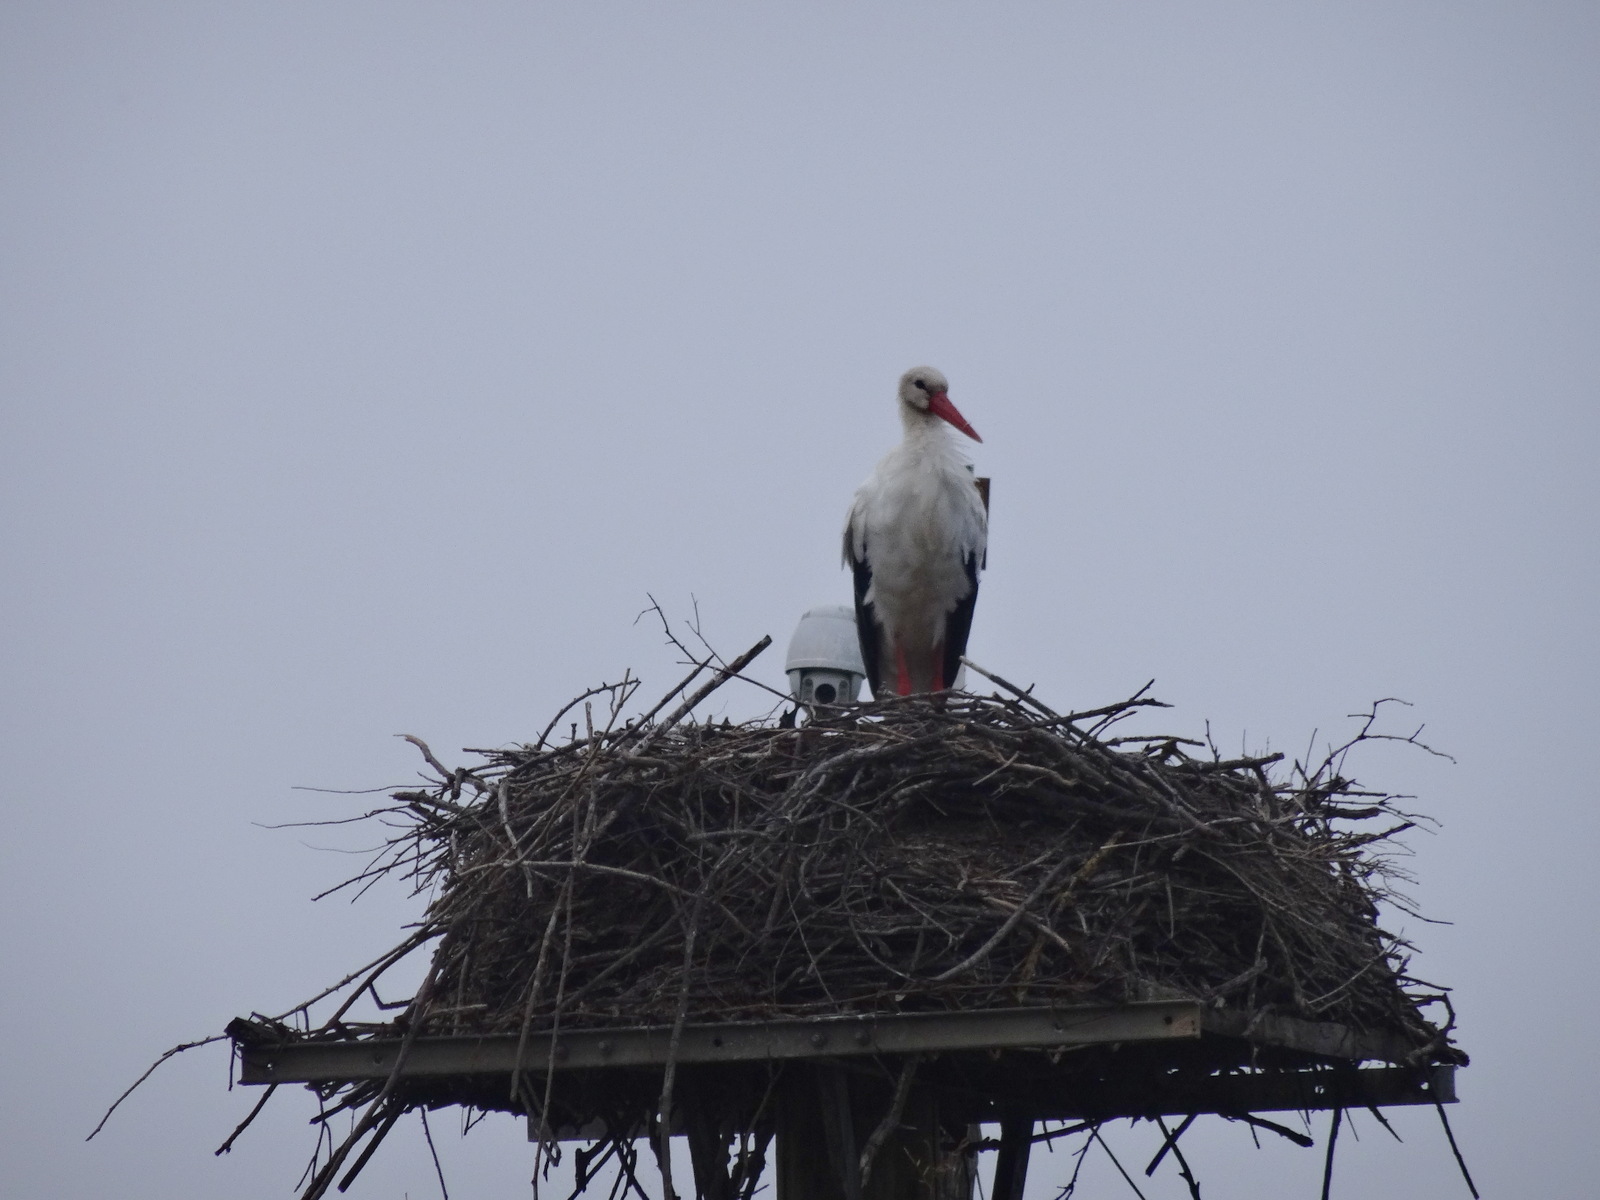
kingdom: Animalia
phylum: Chordata
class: Aves
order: Ciconiiformes
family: Ciconiidae
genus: Ciconia
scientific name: Ciconia ciconia
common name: White stork
